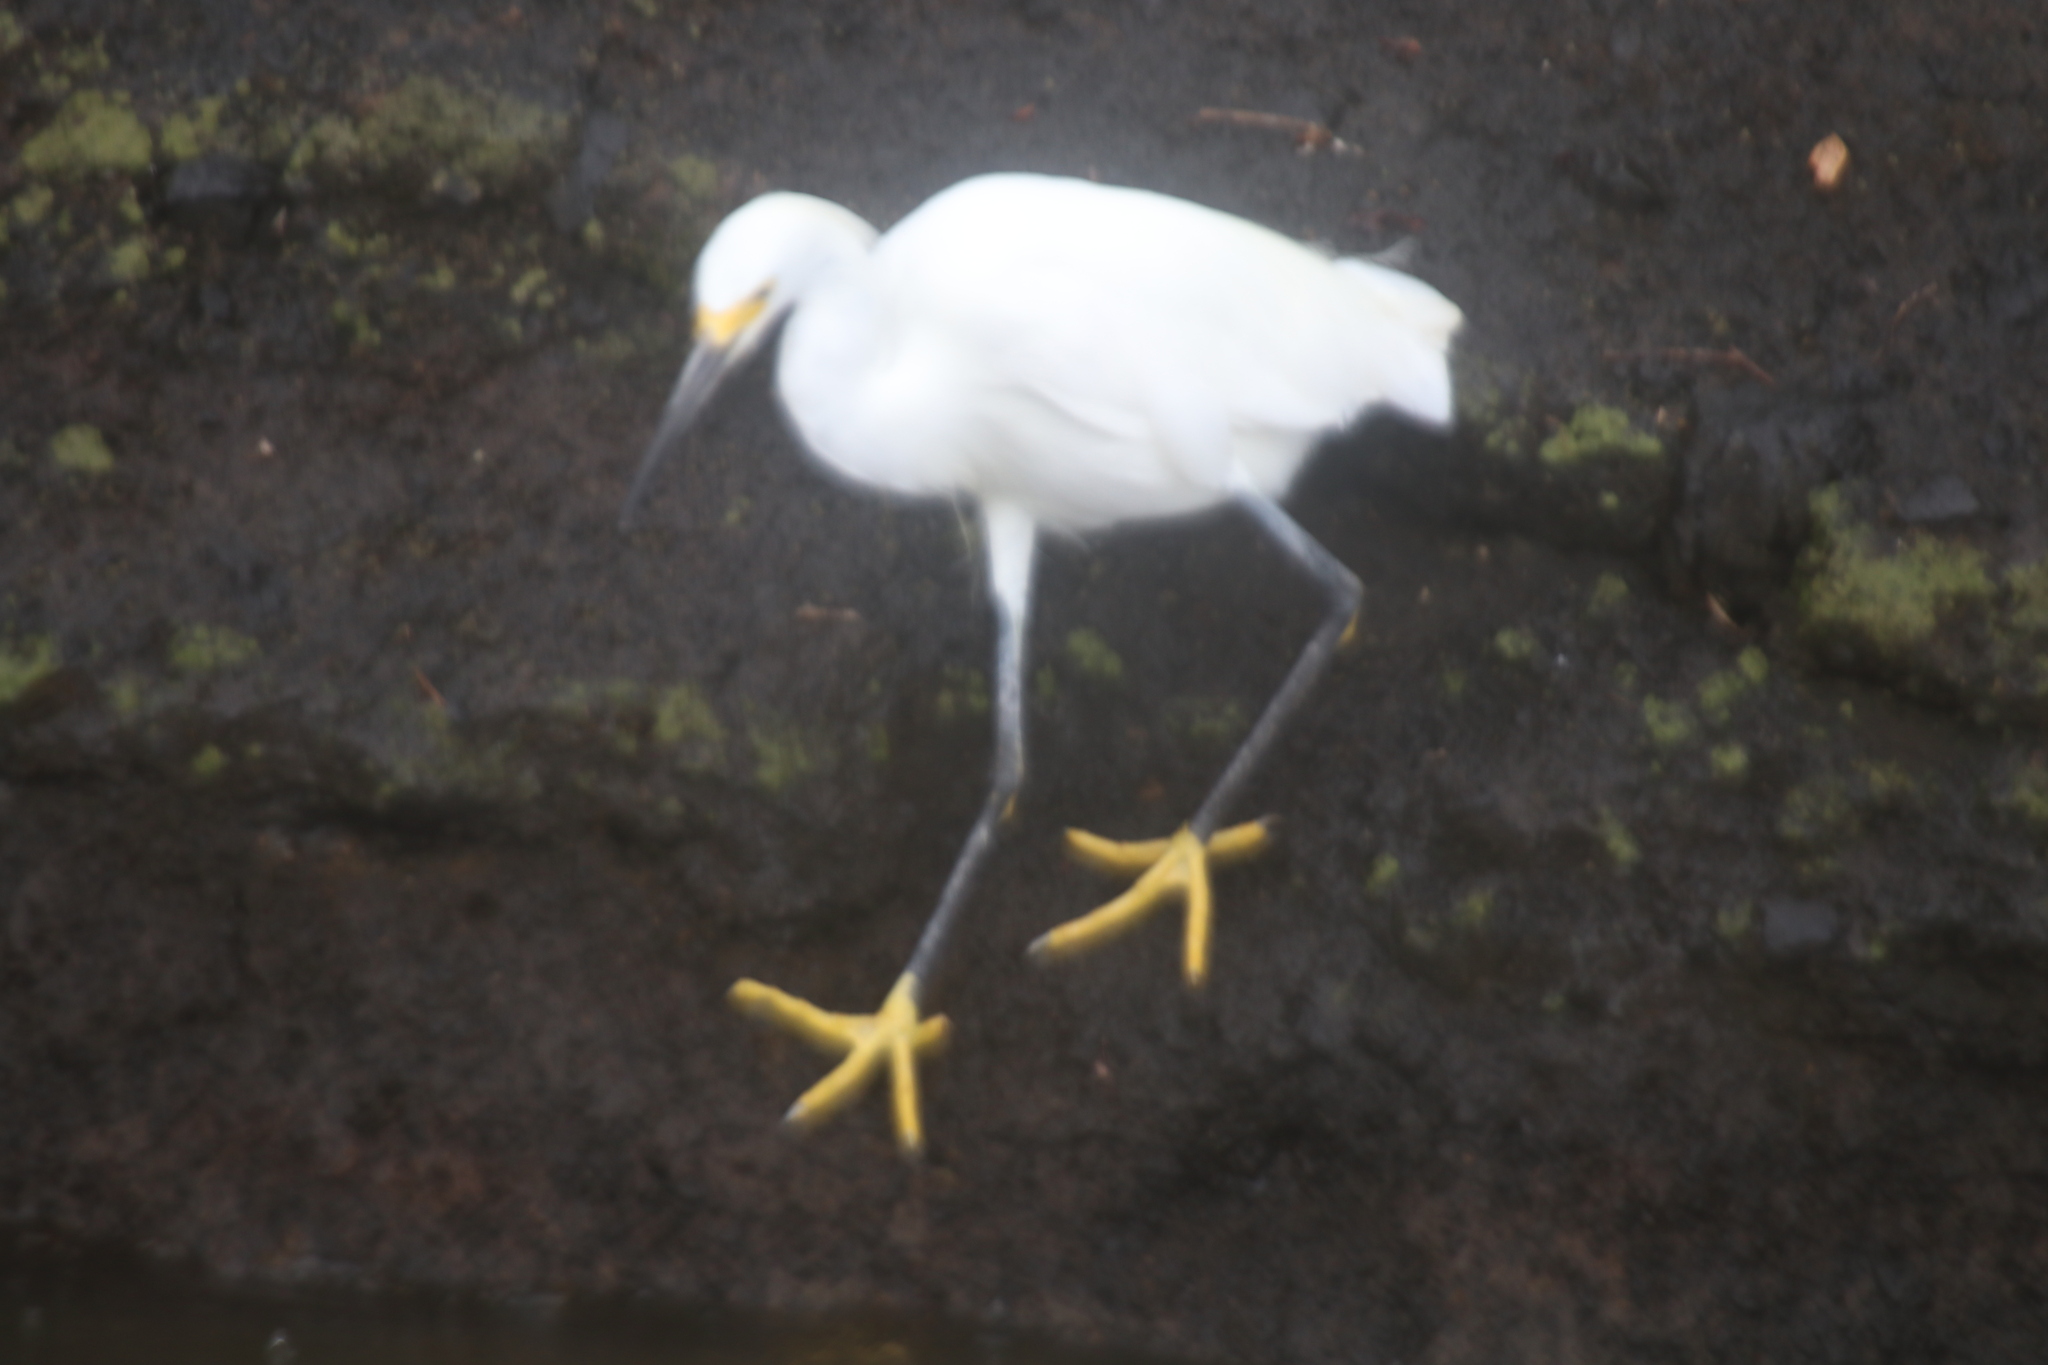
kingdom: Animalia
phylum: Chordata
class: Aves
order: Pelecaniformes
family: Ardeidae
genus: Egretta
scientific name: Egretta thula
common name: Snowy egret
